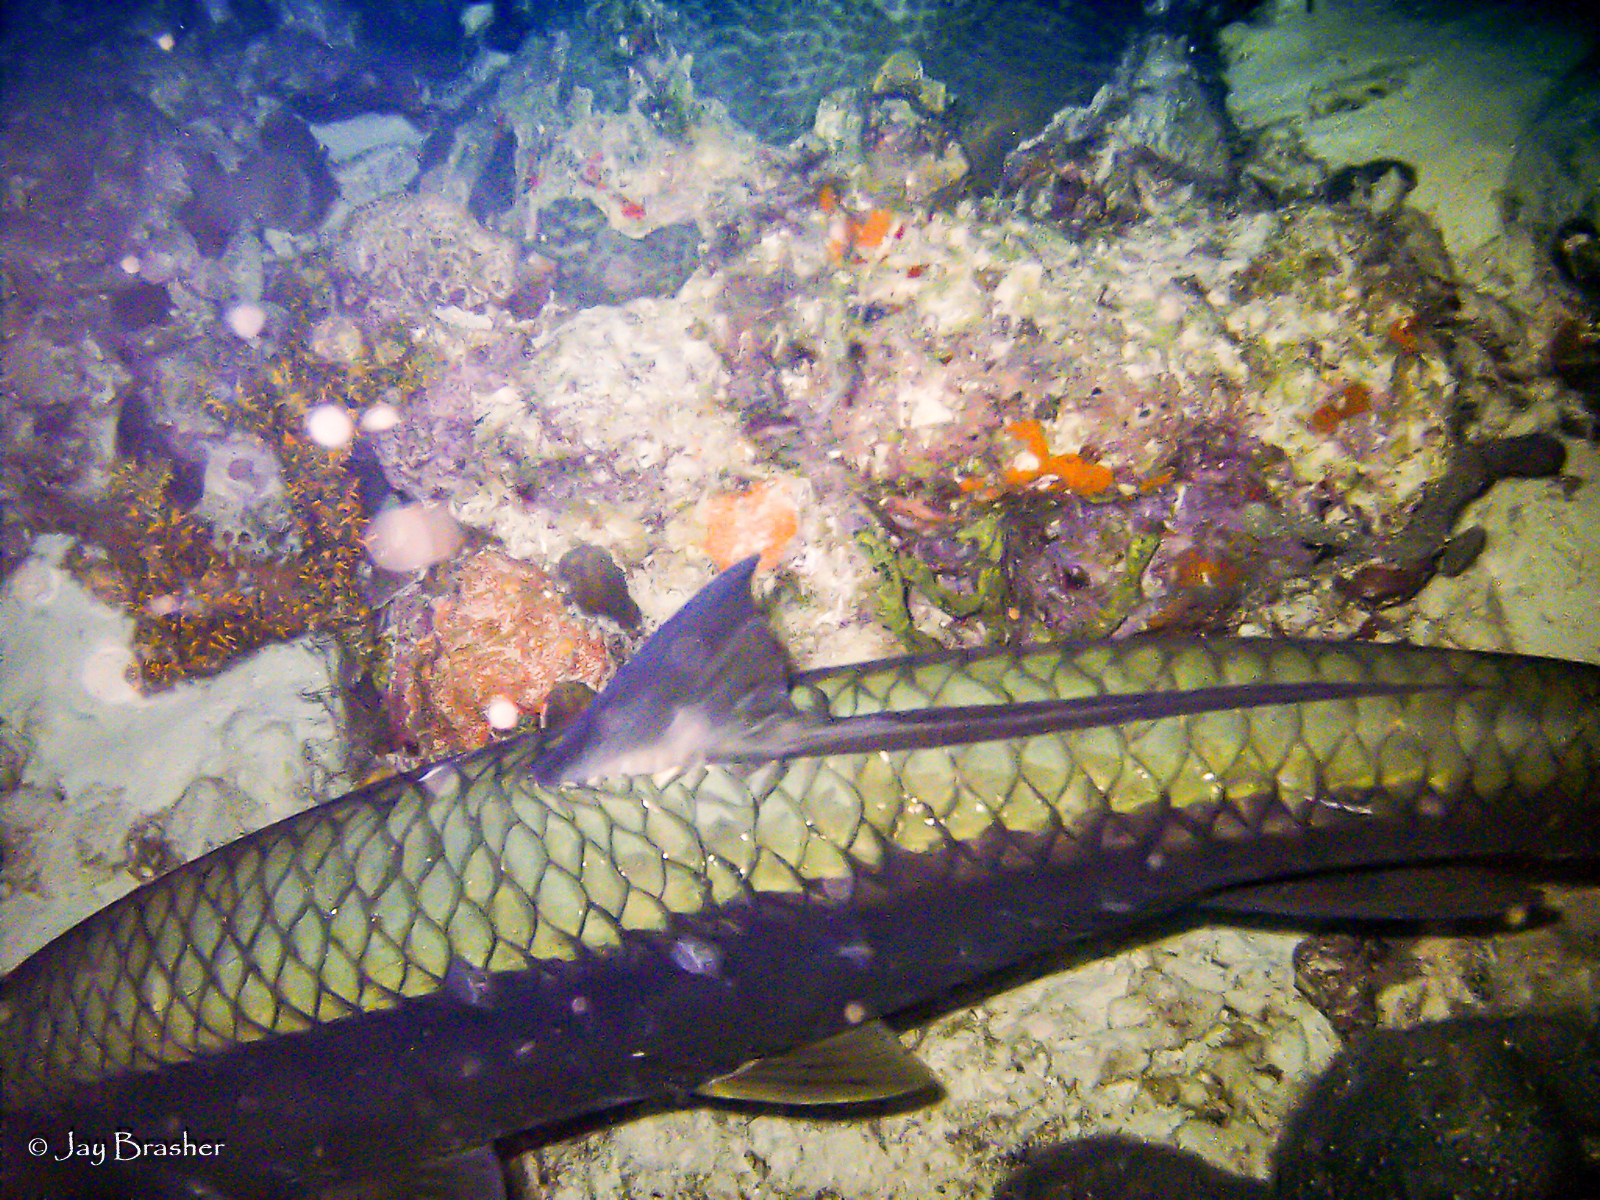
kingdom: Animalia
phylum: Chordata
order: Elopiformes
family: Megalopidae
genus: Megalops
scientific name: Megalops atlanticus
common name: Tarpon
